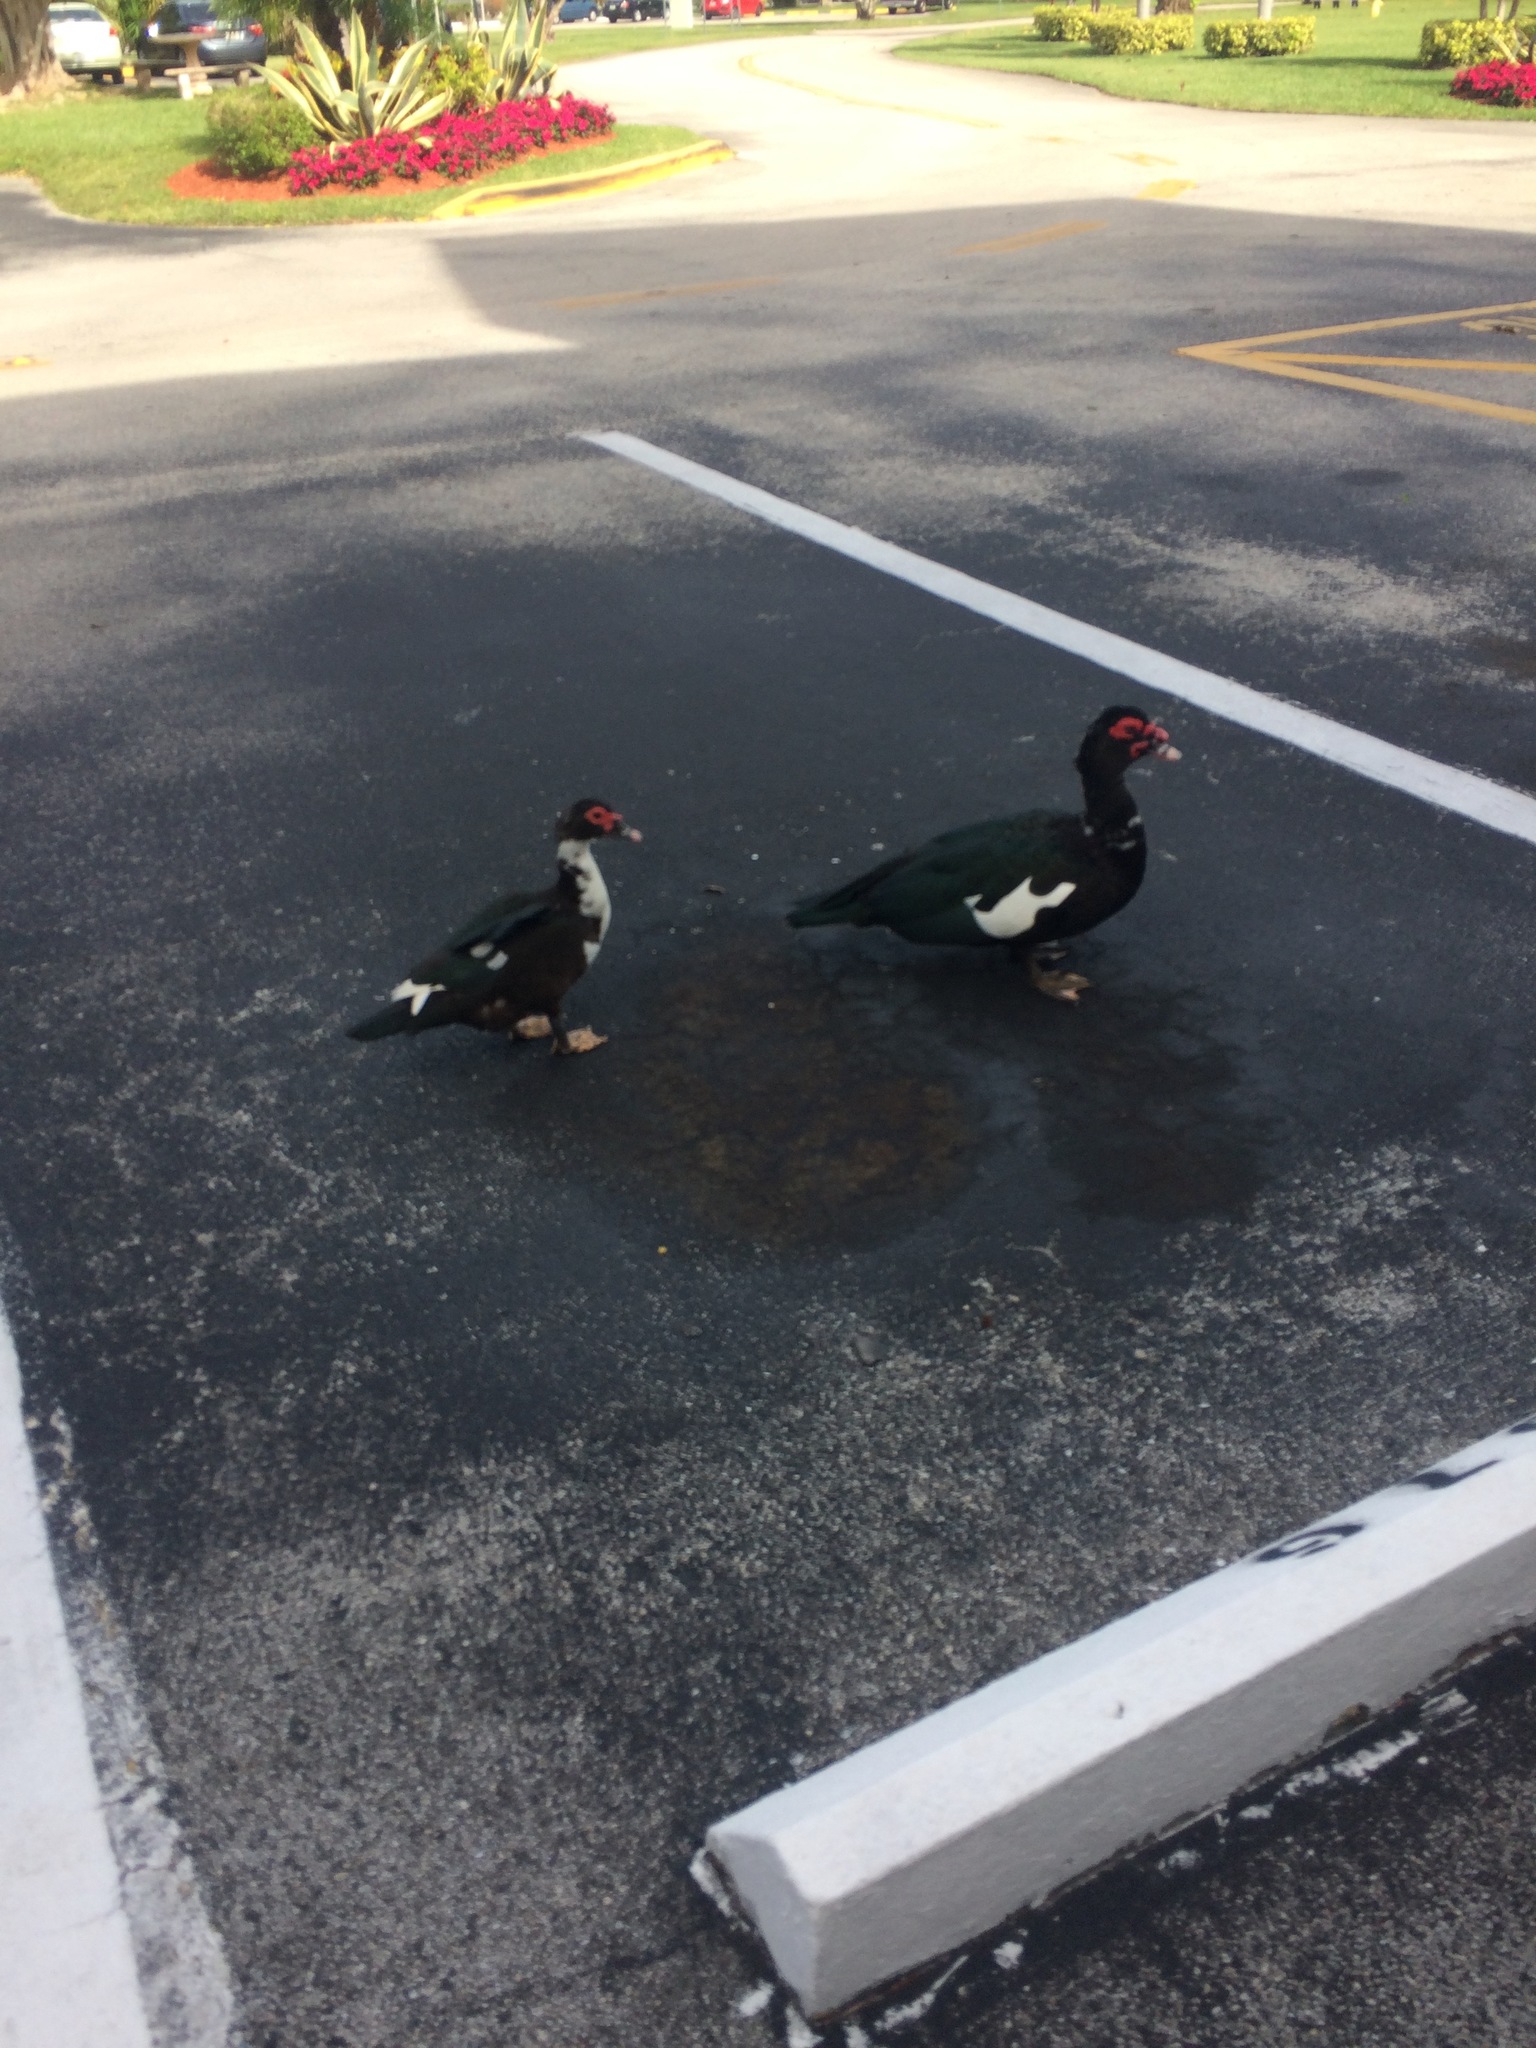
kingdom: Animalia
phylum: Chordata
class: Aves
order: Anseriformes
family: Anatidae
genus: Cairina
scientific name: Cairina moschata
